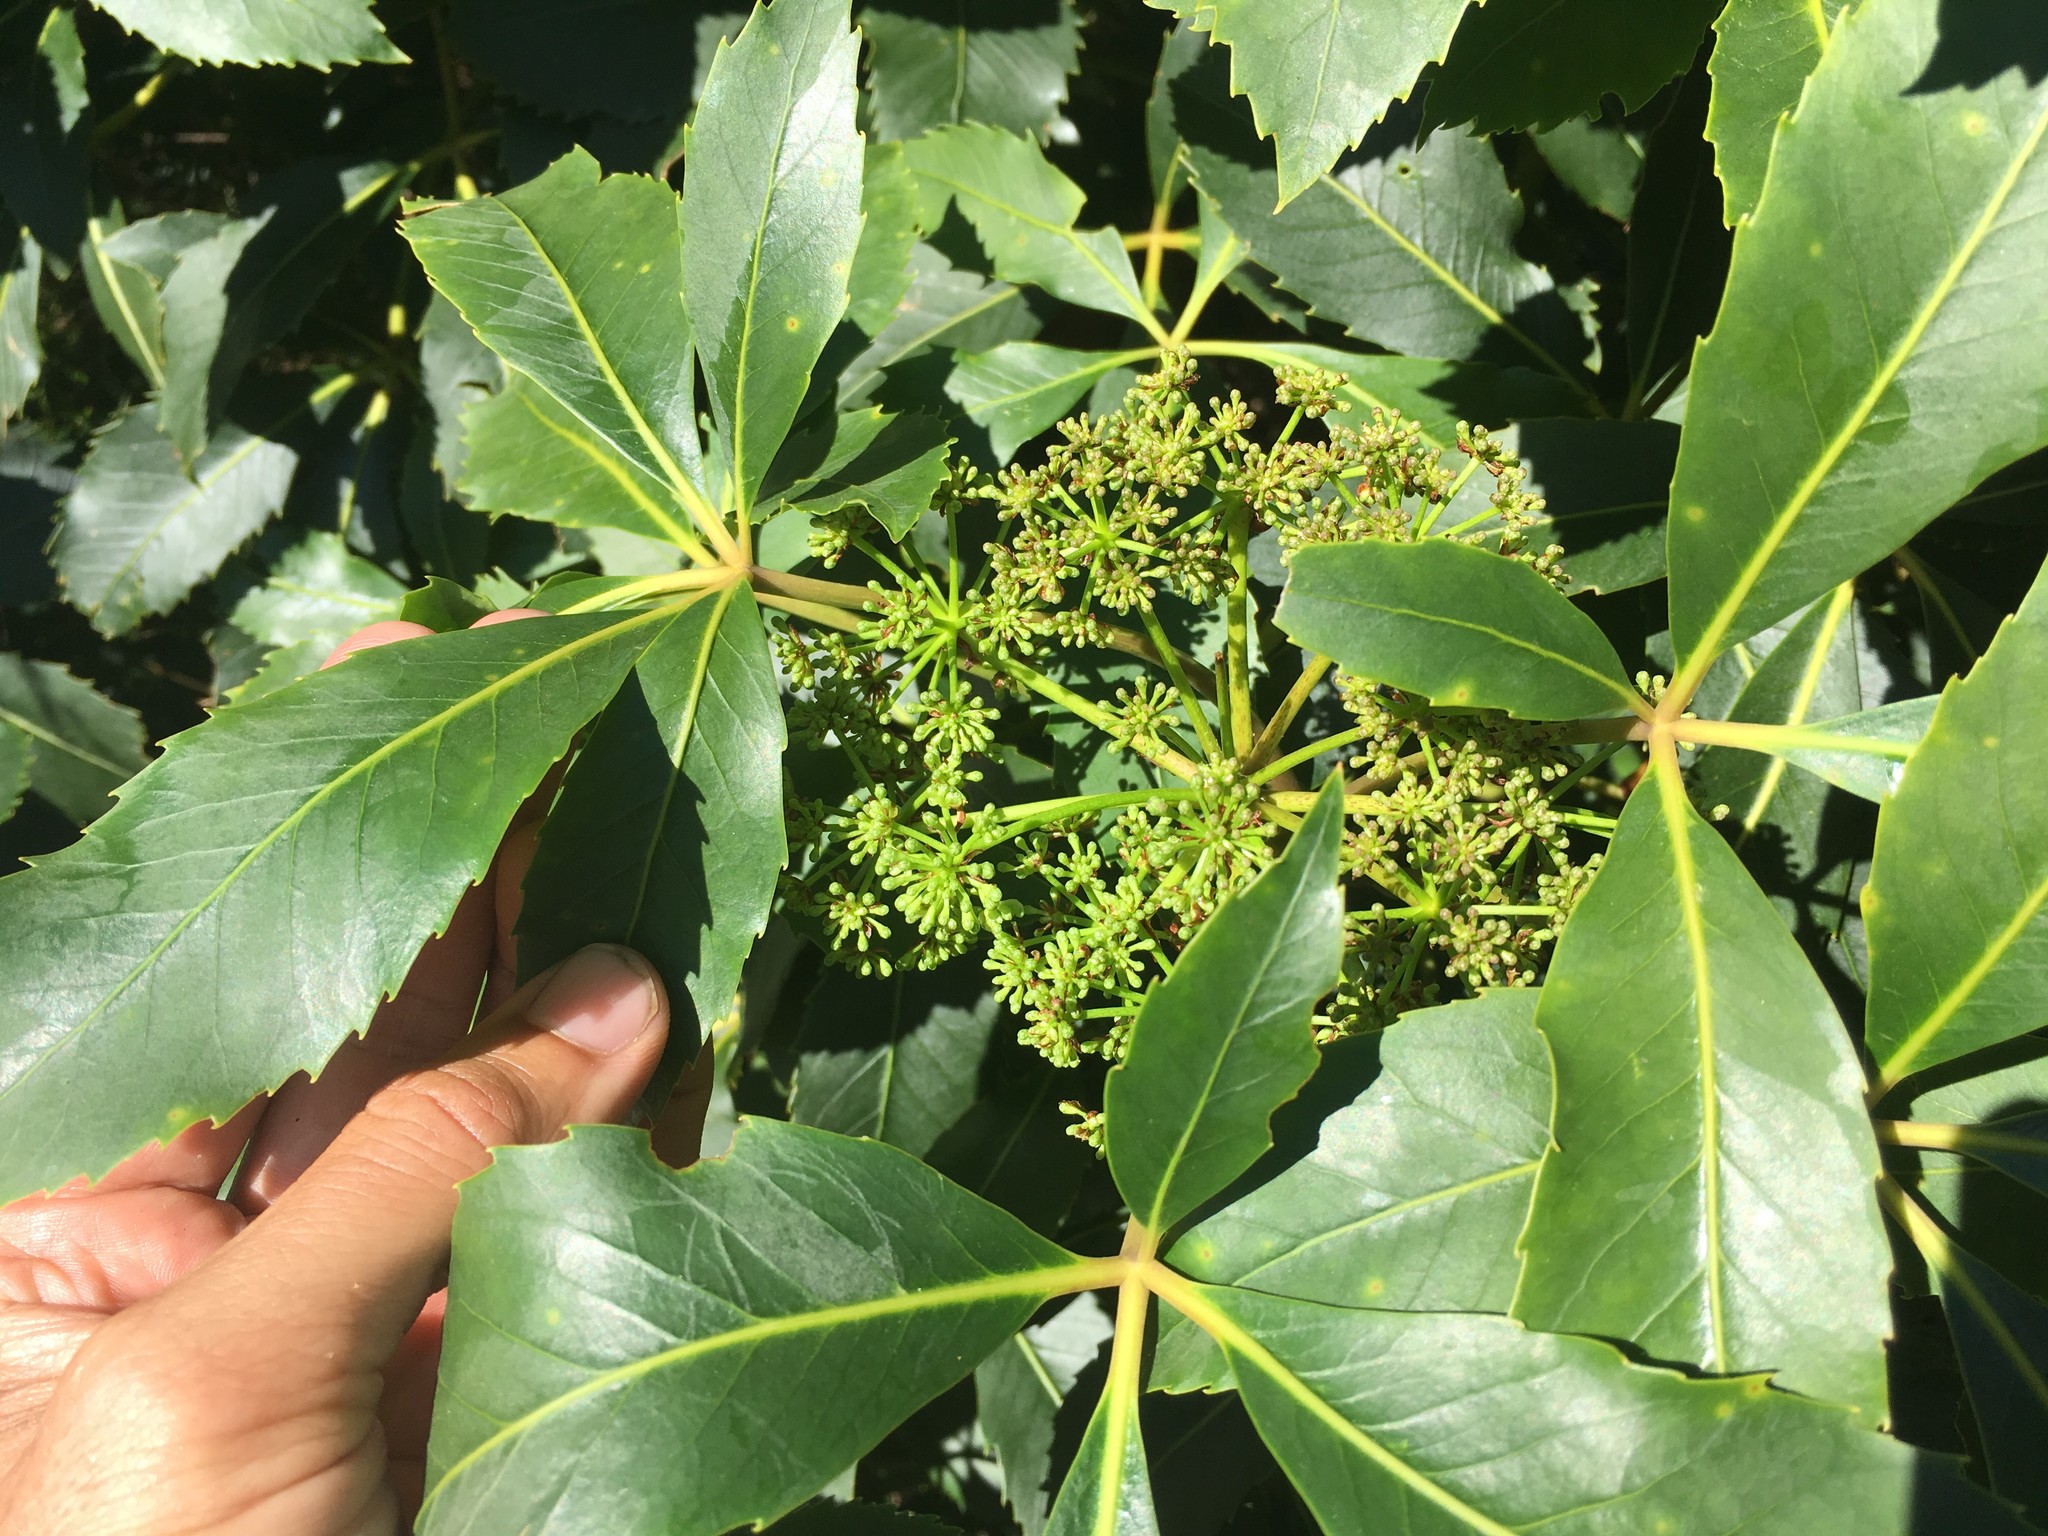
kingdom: Plantae
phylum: Tracheophyta
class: Magnoliopsida
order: Apiales
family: Araliaceae
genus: Neopanax
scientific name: Neopanax colensoi
